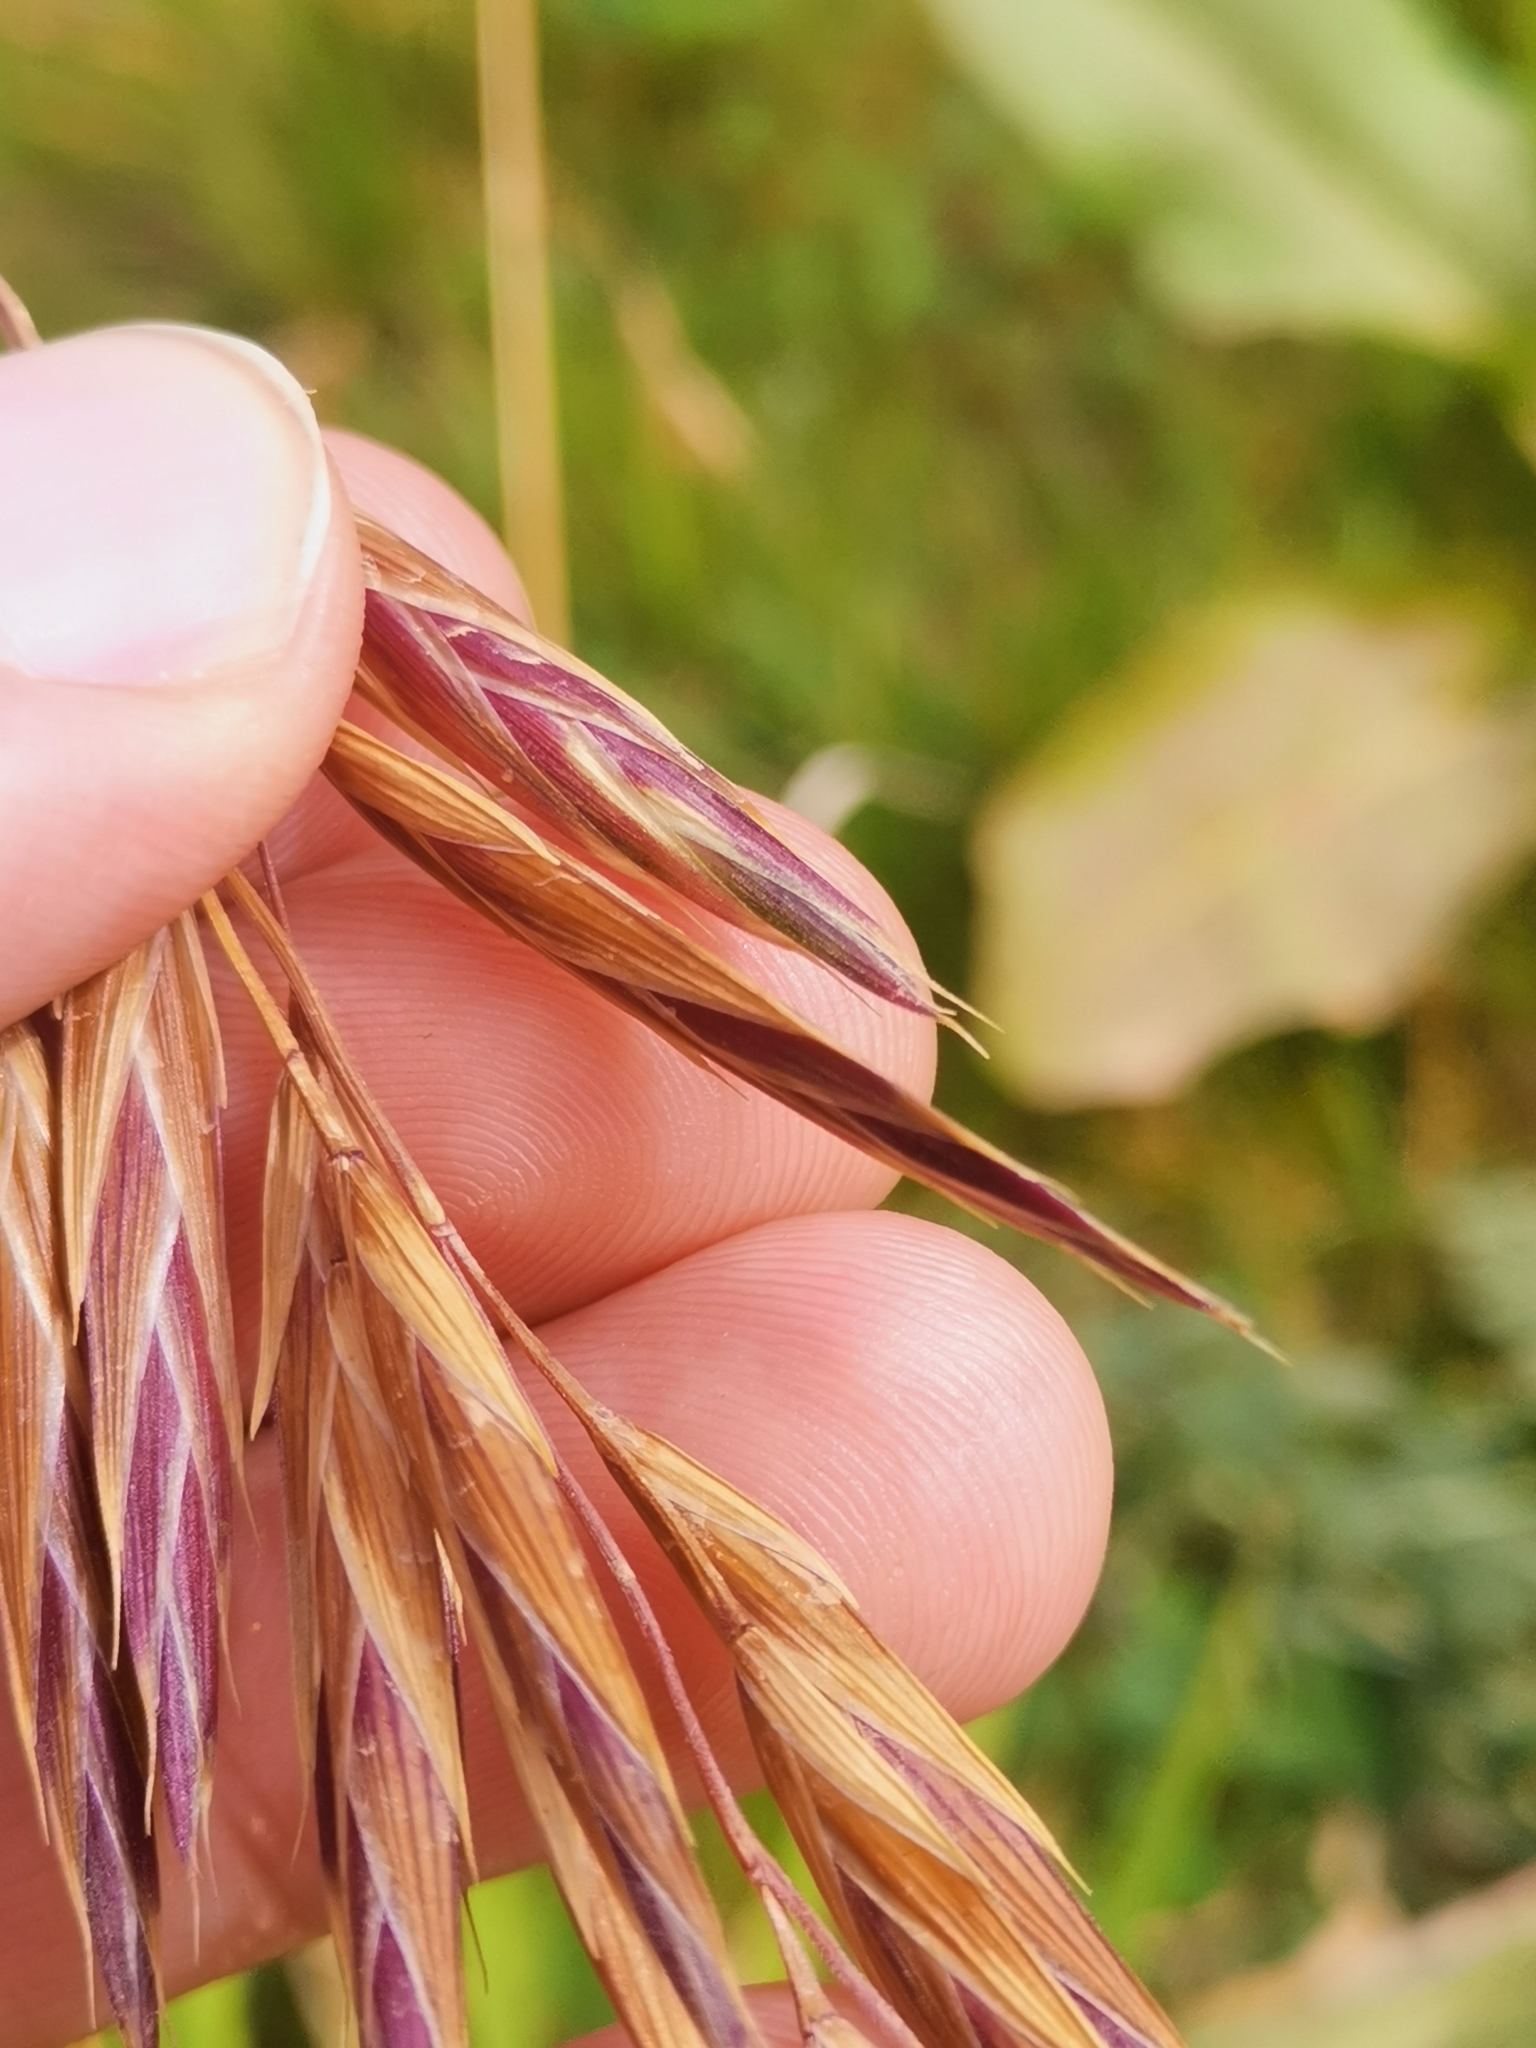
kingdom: Plantae
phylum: Tracheophyta
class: Liliopsida
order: Poales
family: Poaceae
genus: Bromus
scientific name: Bromus catharticus
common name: Rescuegrass
